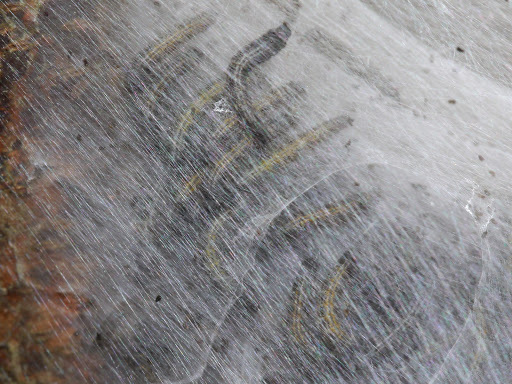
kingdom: Animalia
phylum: Arthropoda
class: Insecta
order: Lepidoptera
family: Lasiocampidae
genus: Malacosoma
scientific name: Malacosoma americana
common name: Eastern tent caterpillar moth
